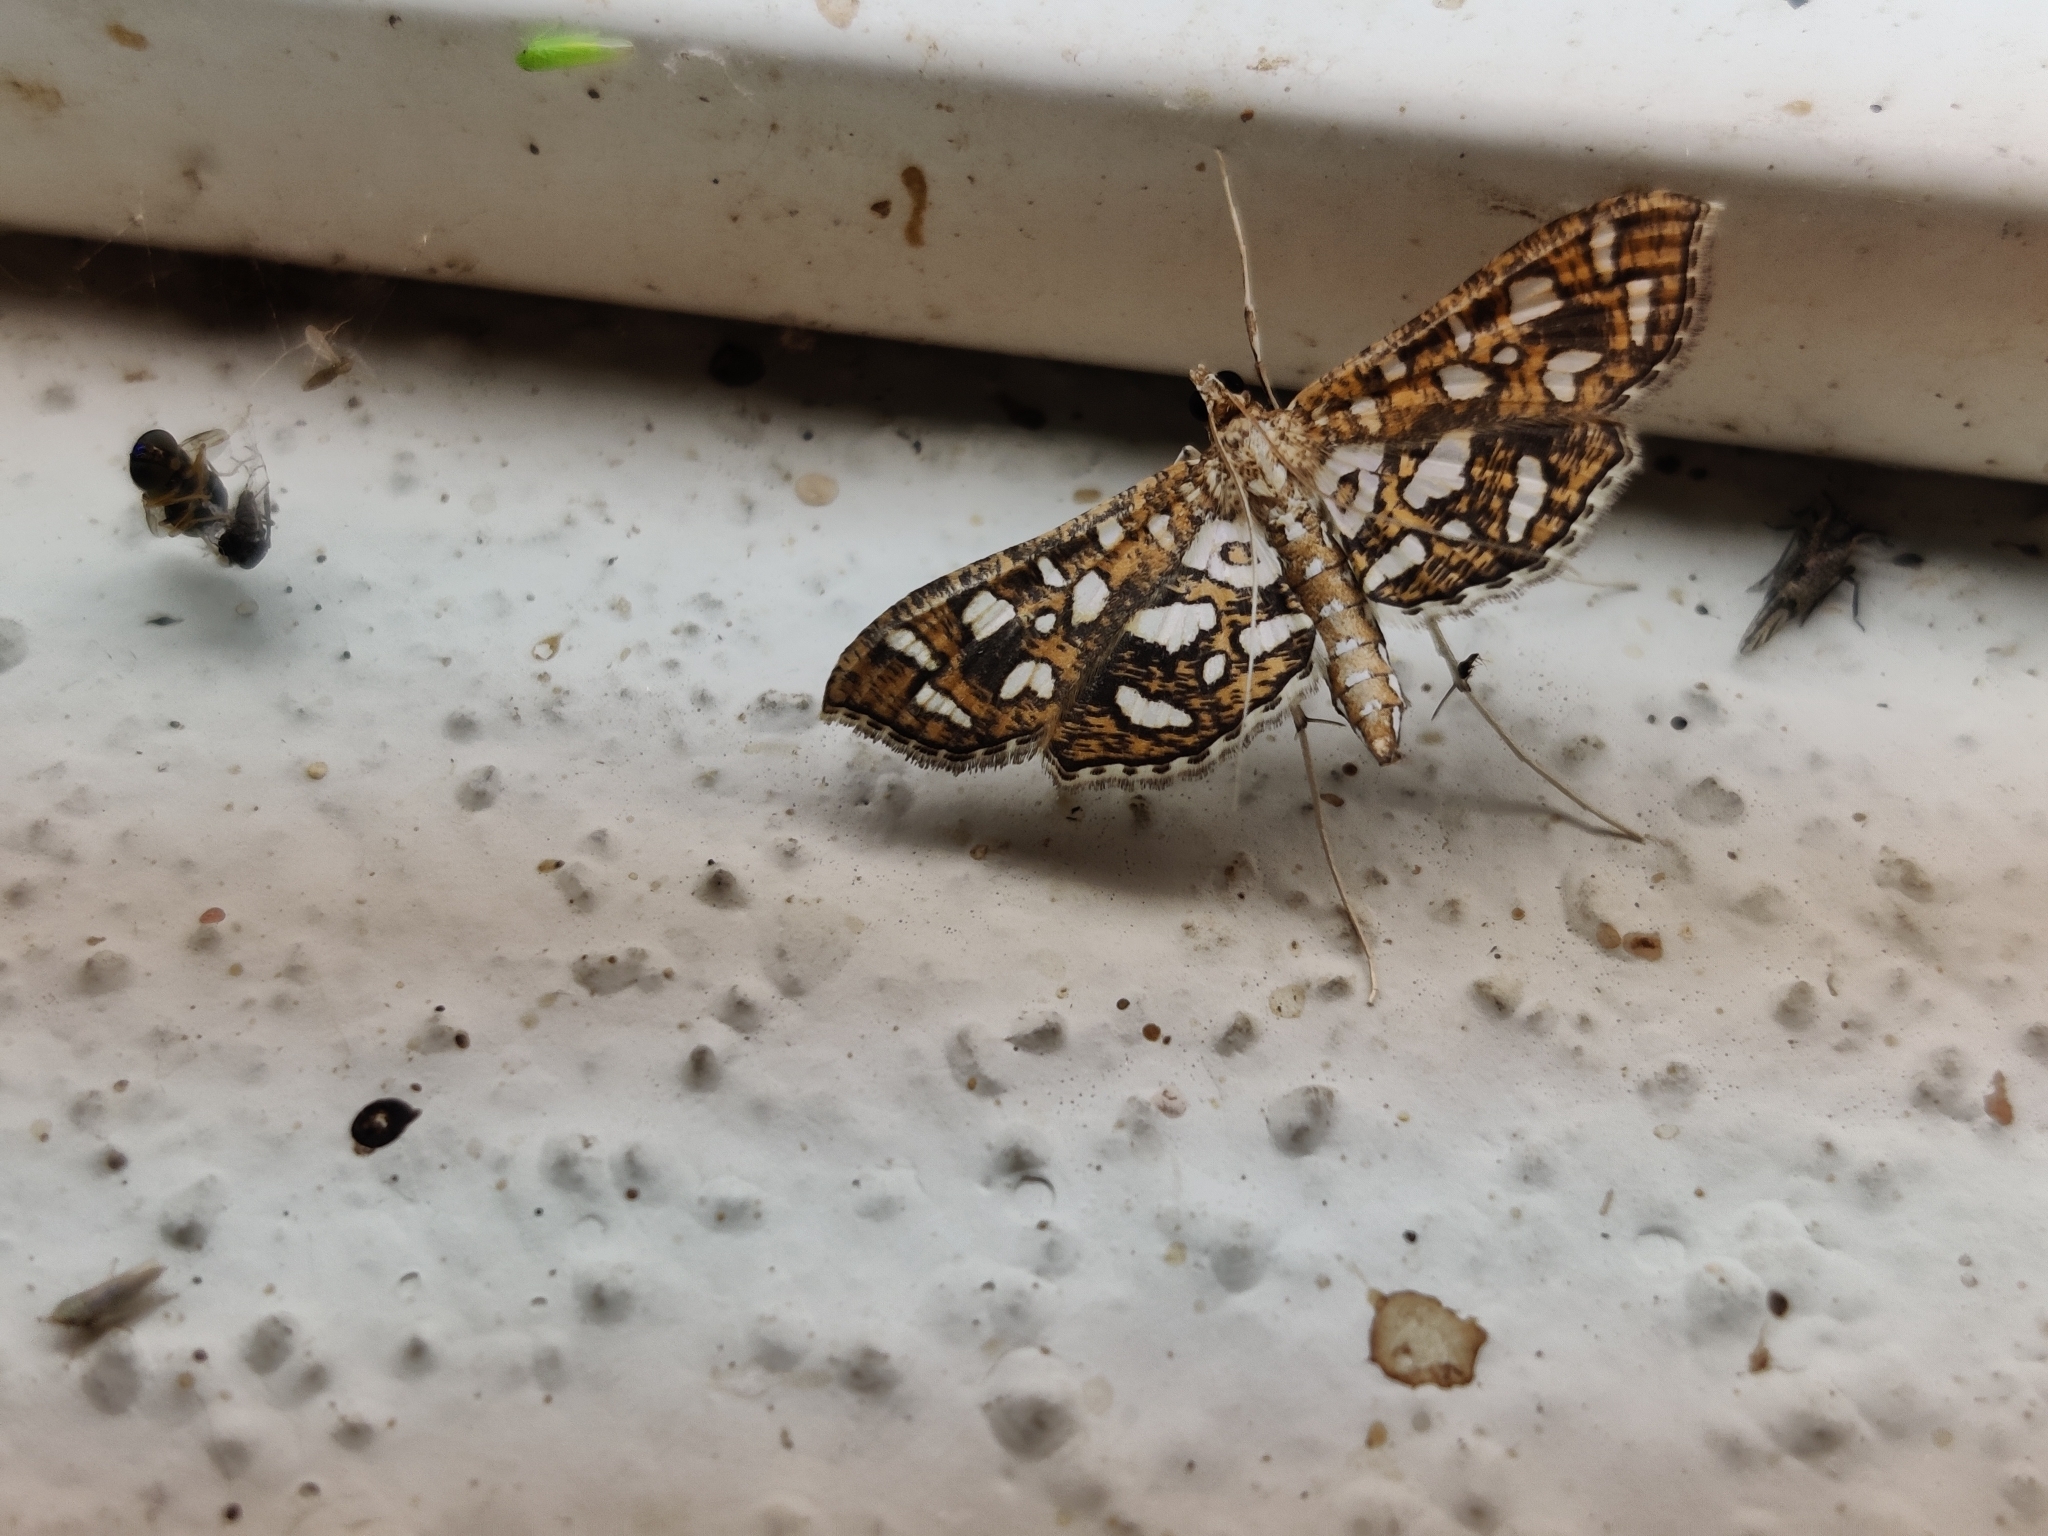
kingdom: Animalia
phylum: Arthropoda
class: Insecta
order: Lepidoptera
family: Crambidae
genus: Nausinoe
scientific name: Nausinoe geometralis
